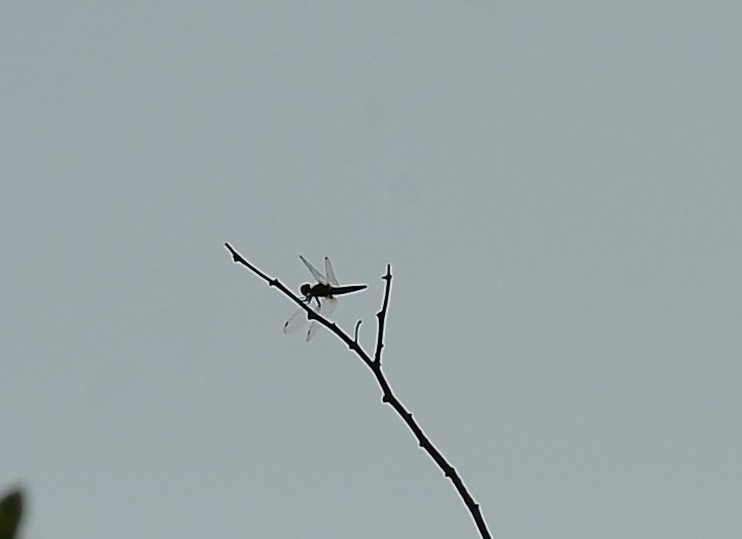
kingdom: Animalia
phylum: Arthropoda
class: Insecta
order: Odonata
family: Libellulidae
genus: Aethriamanta
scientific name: Aethriamanta brevipennis
